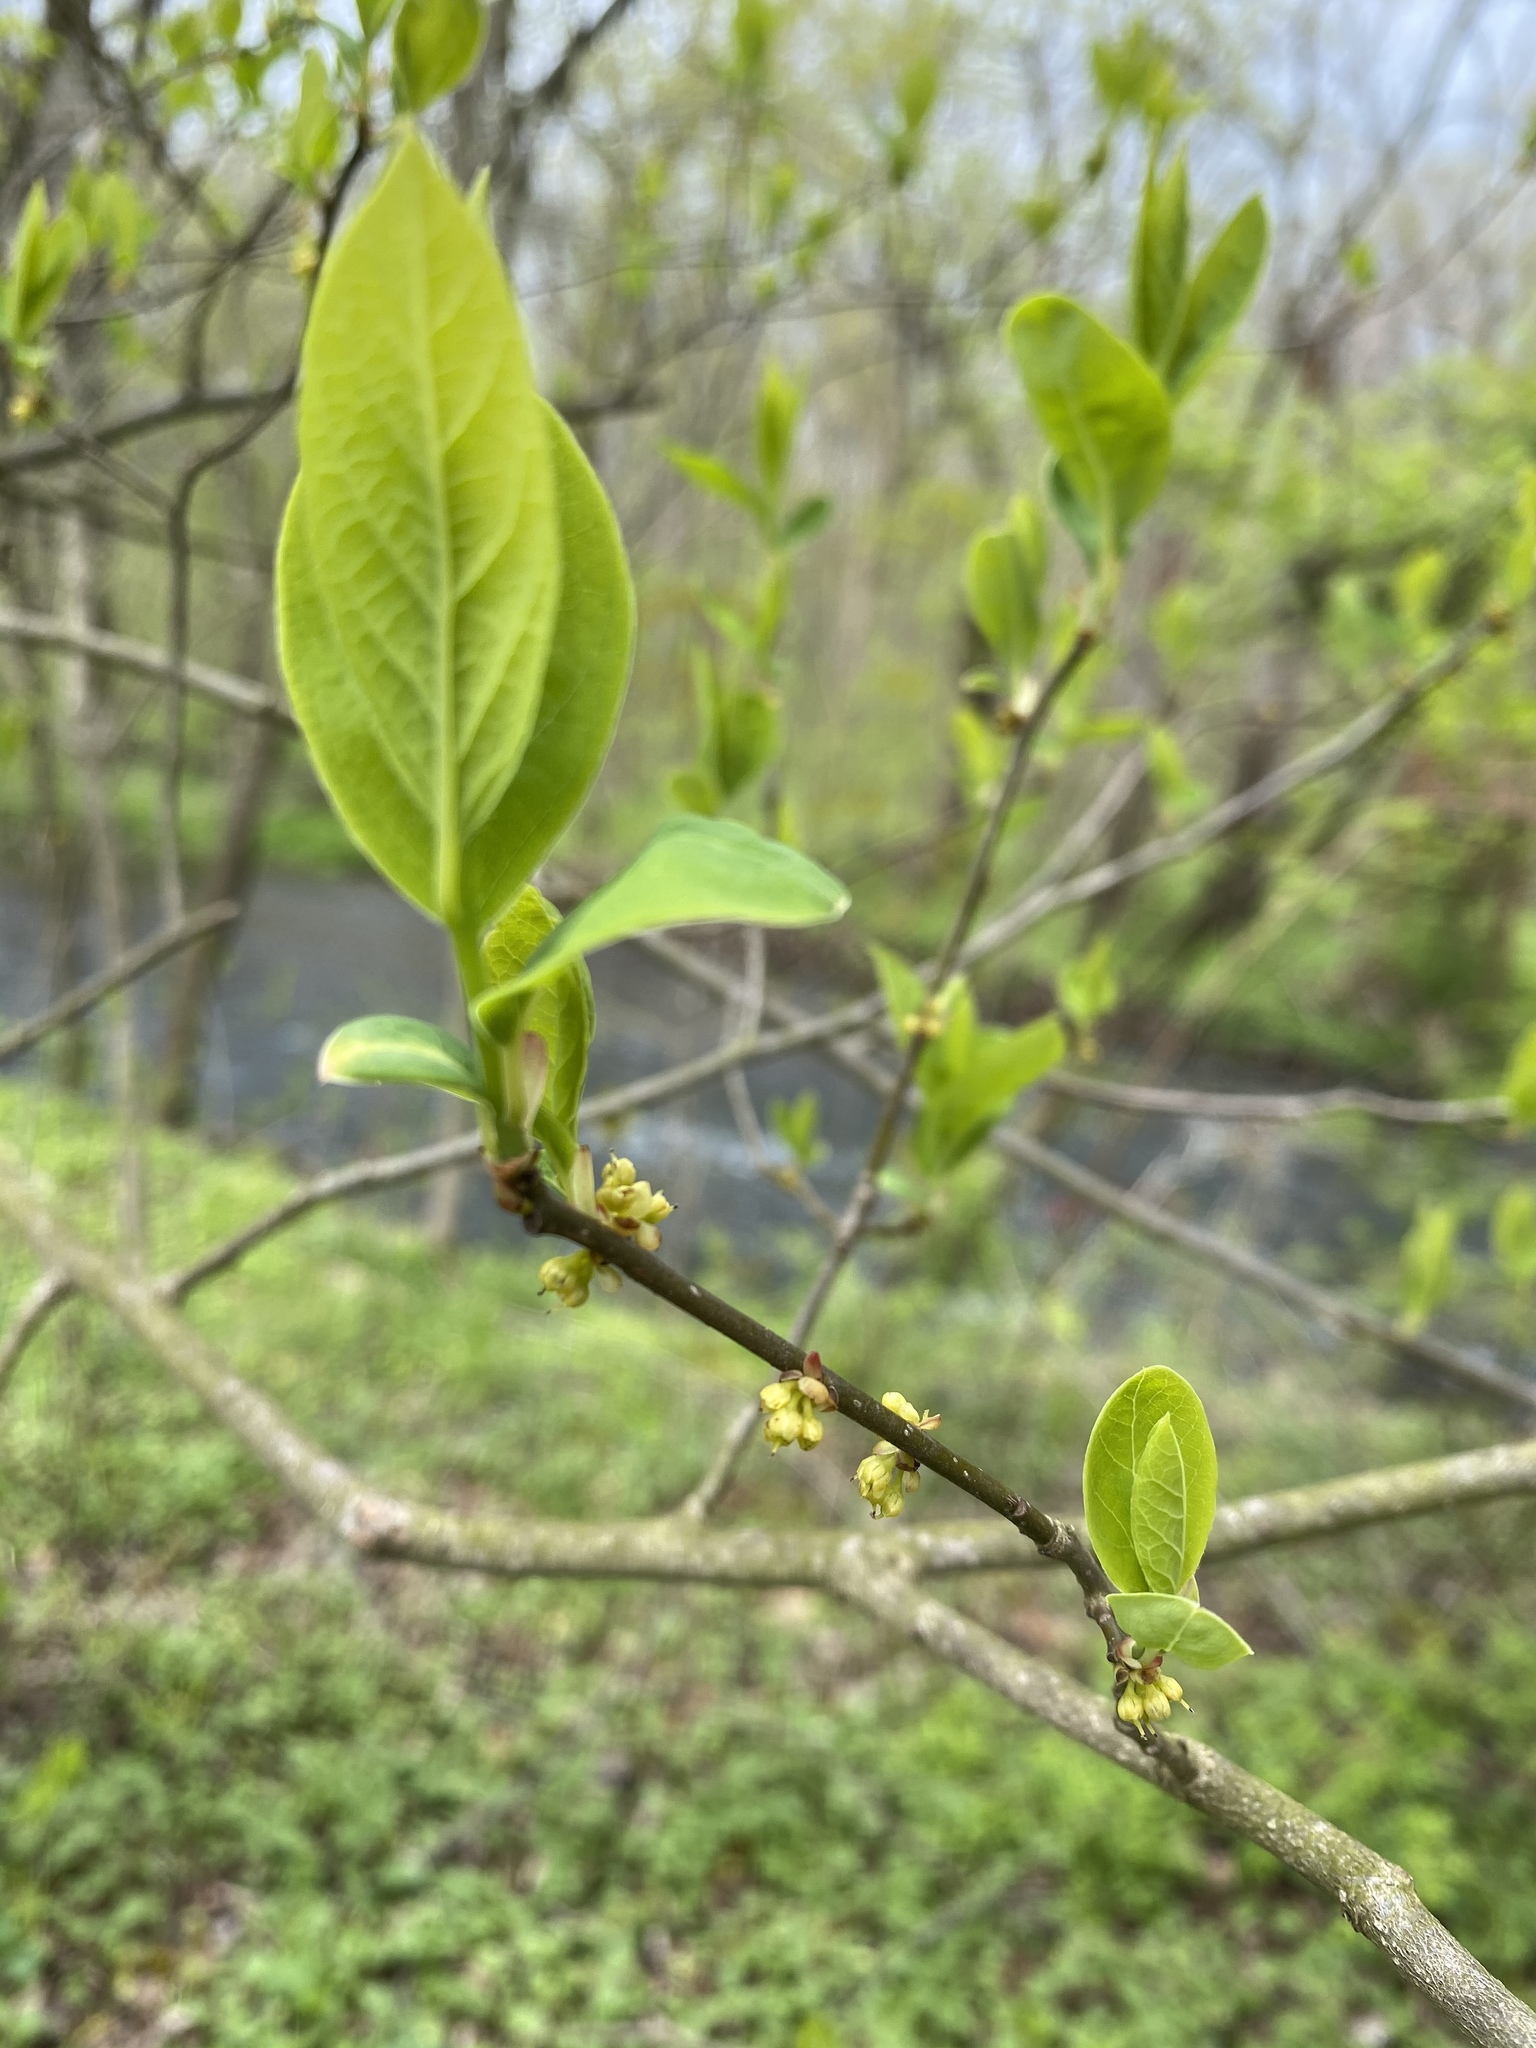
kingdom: Plantae
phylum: Tracheophyta
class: Magnoliopsida
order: Laurales
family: Lauraceae
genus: Lindera
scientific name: Lindera benzoin
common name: Spicebush
